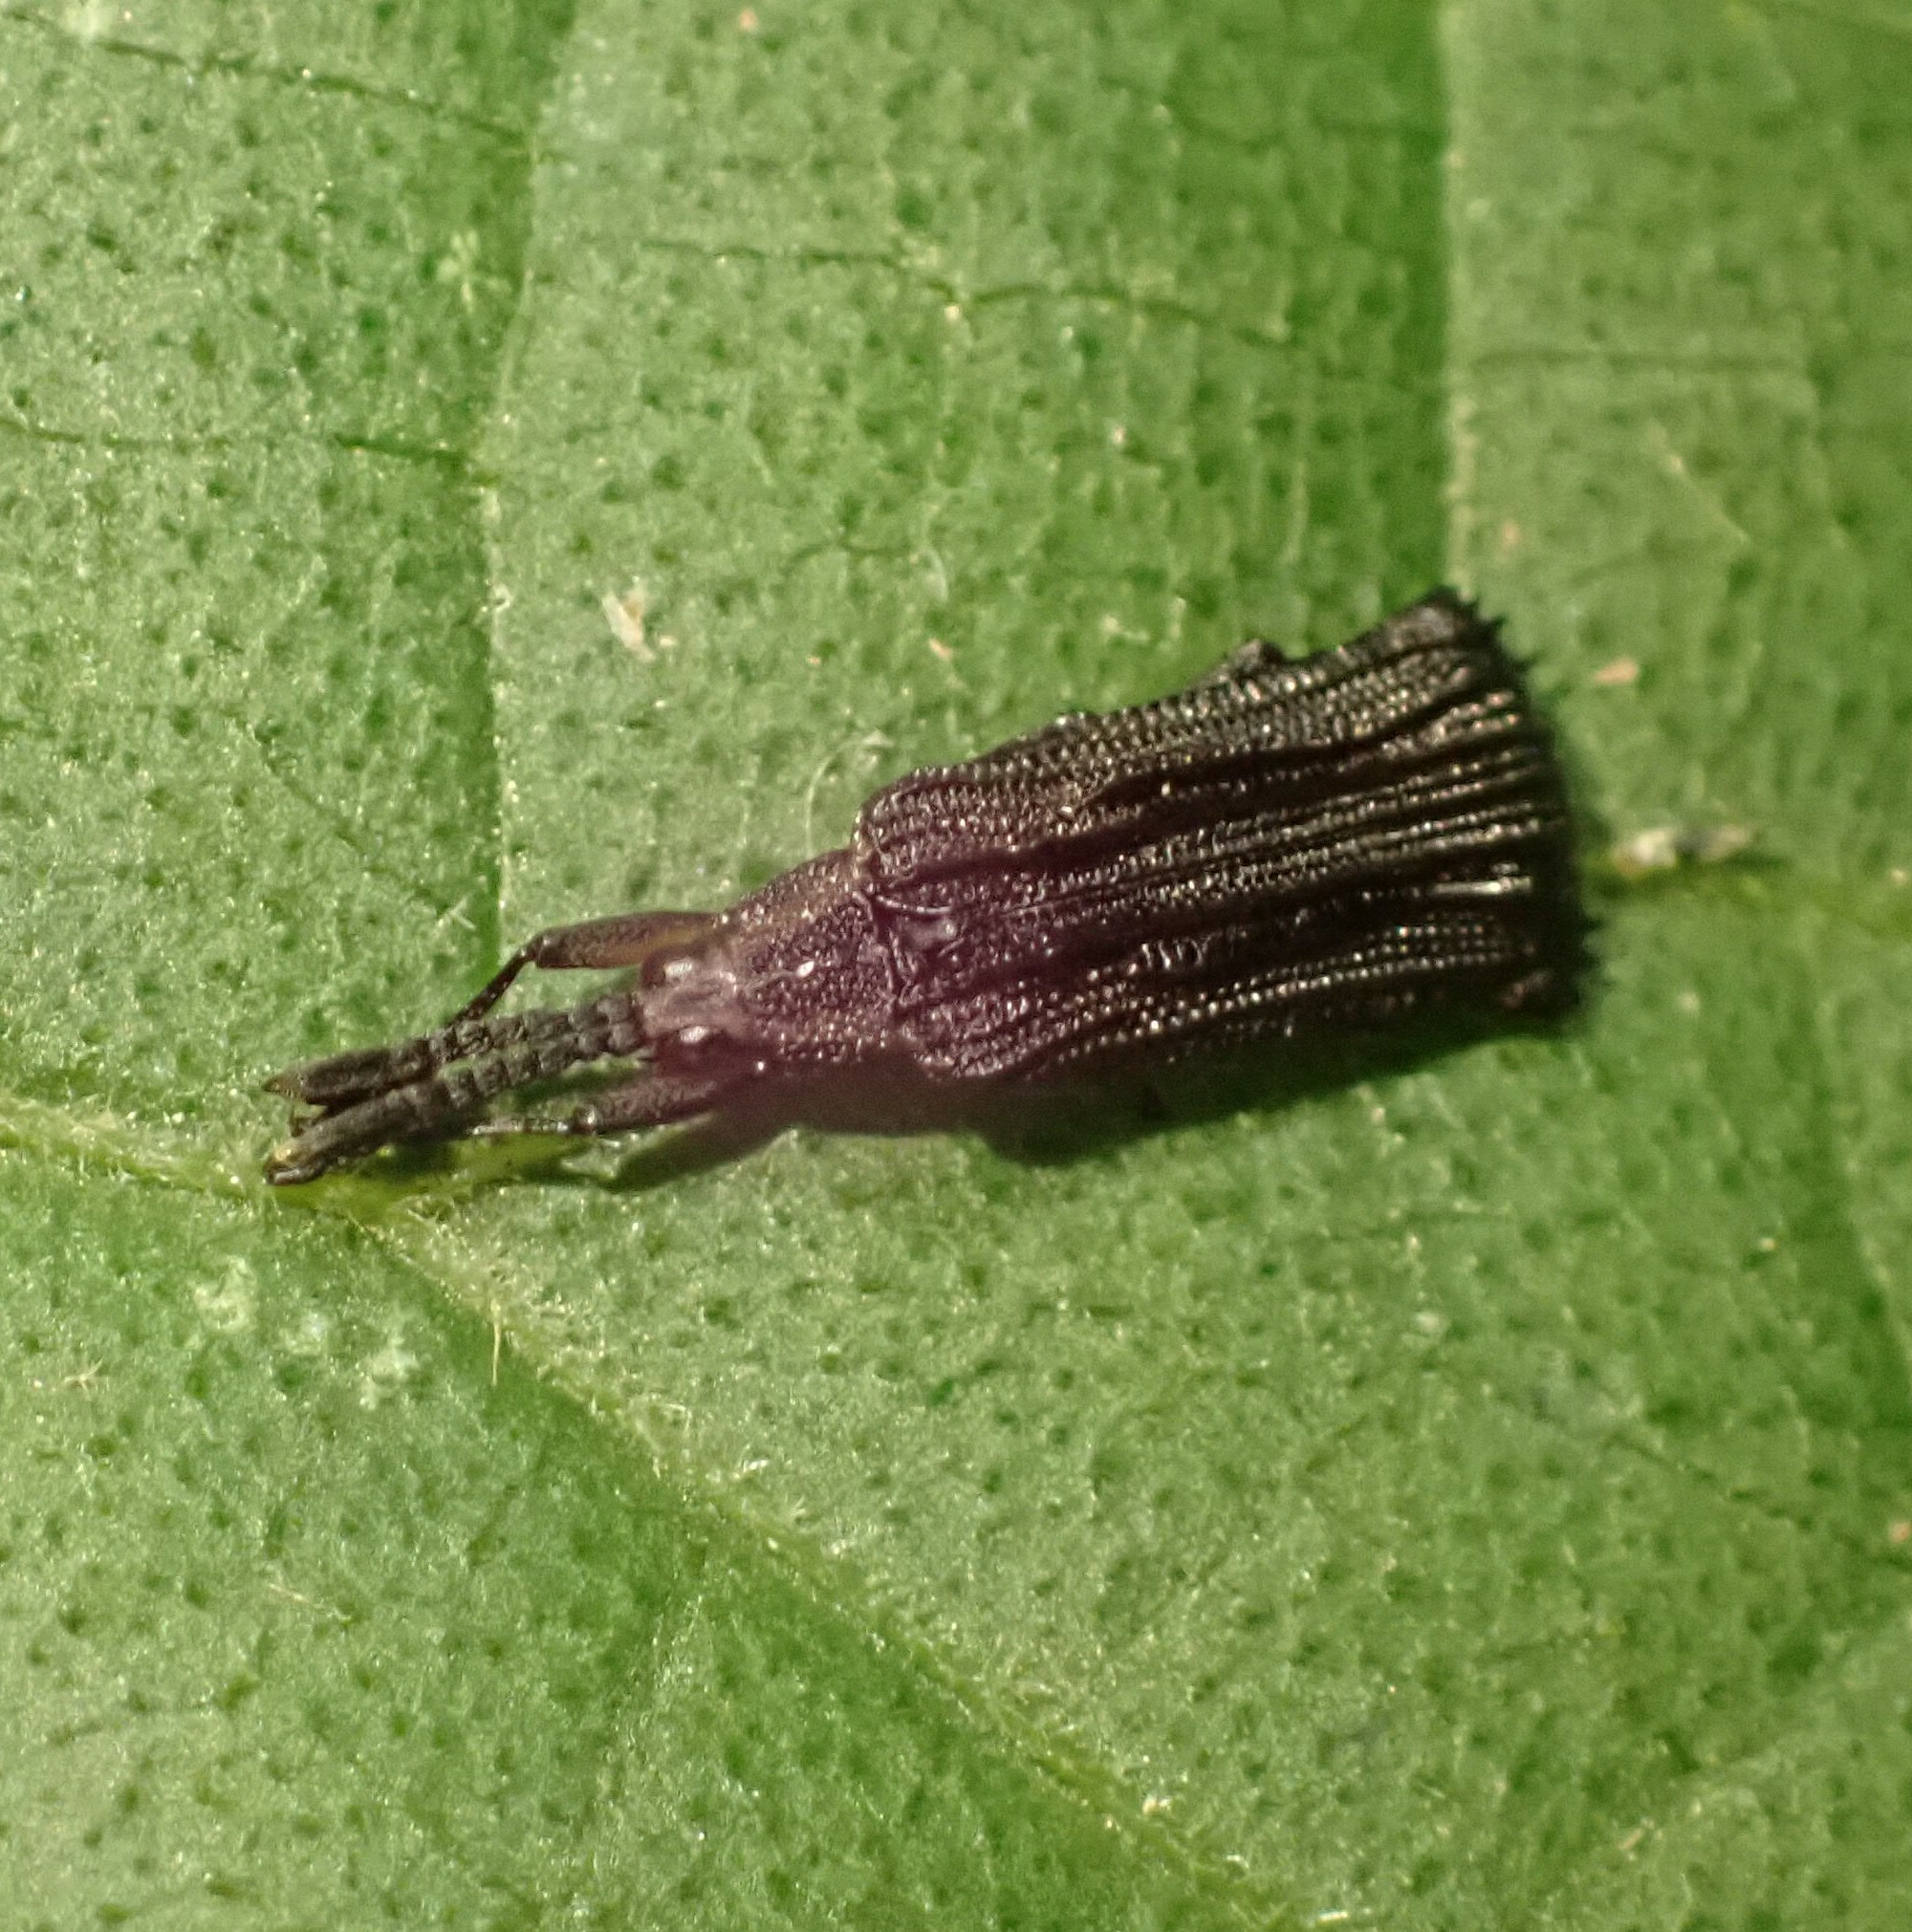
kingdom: Animalia
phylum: Arthropoda
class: Insecta
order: Coleoptera
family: Chrysomelidae
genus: Uroplata
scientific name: Uroplata interrupta
